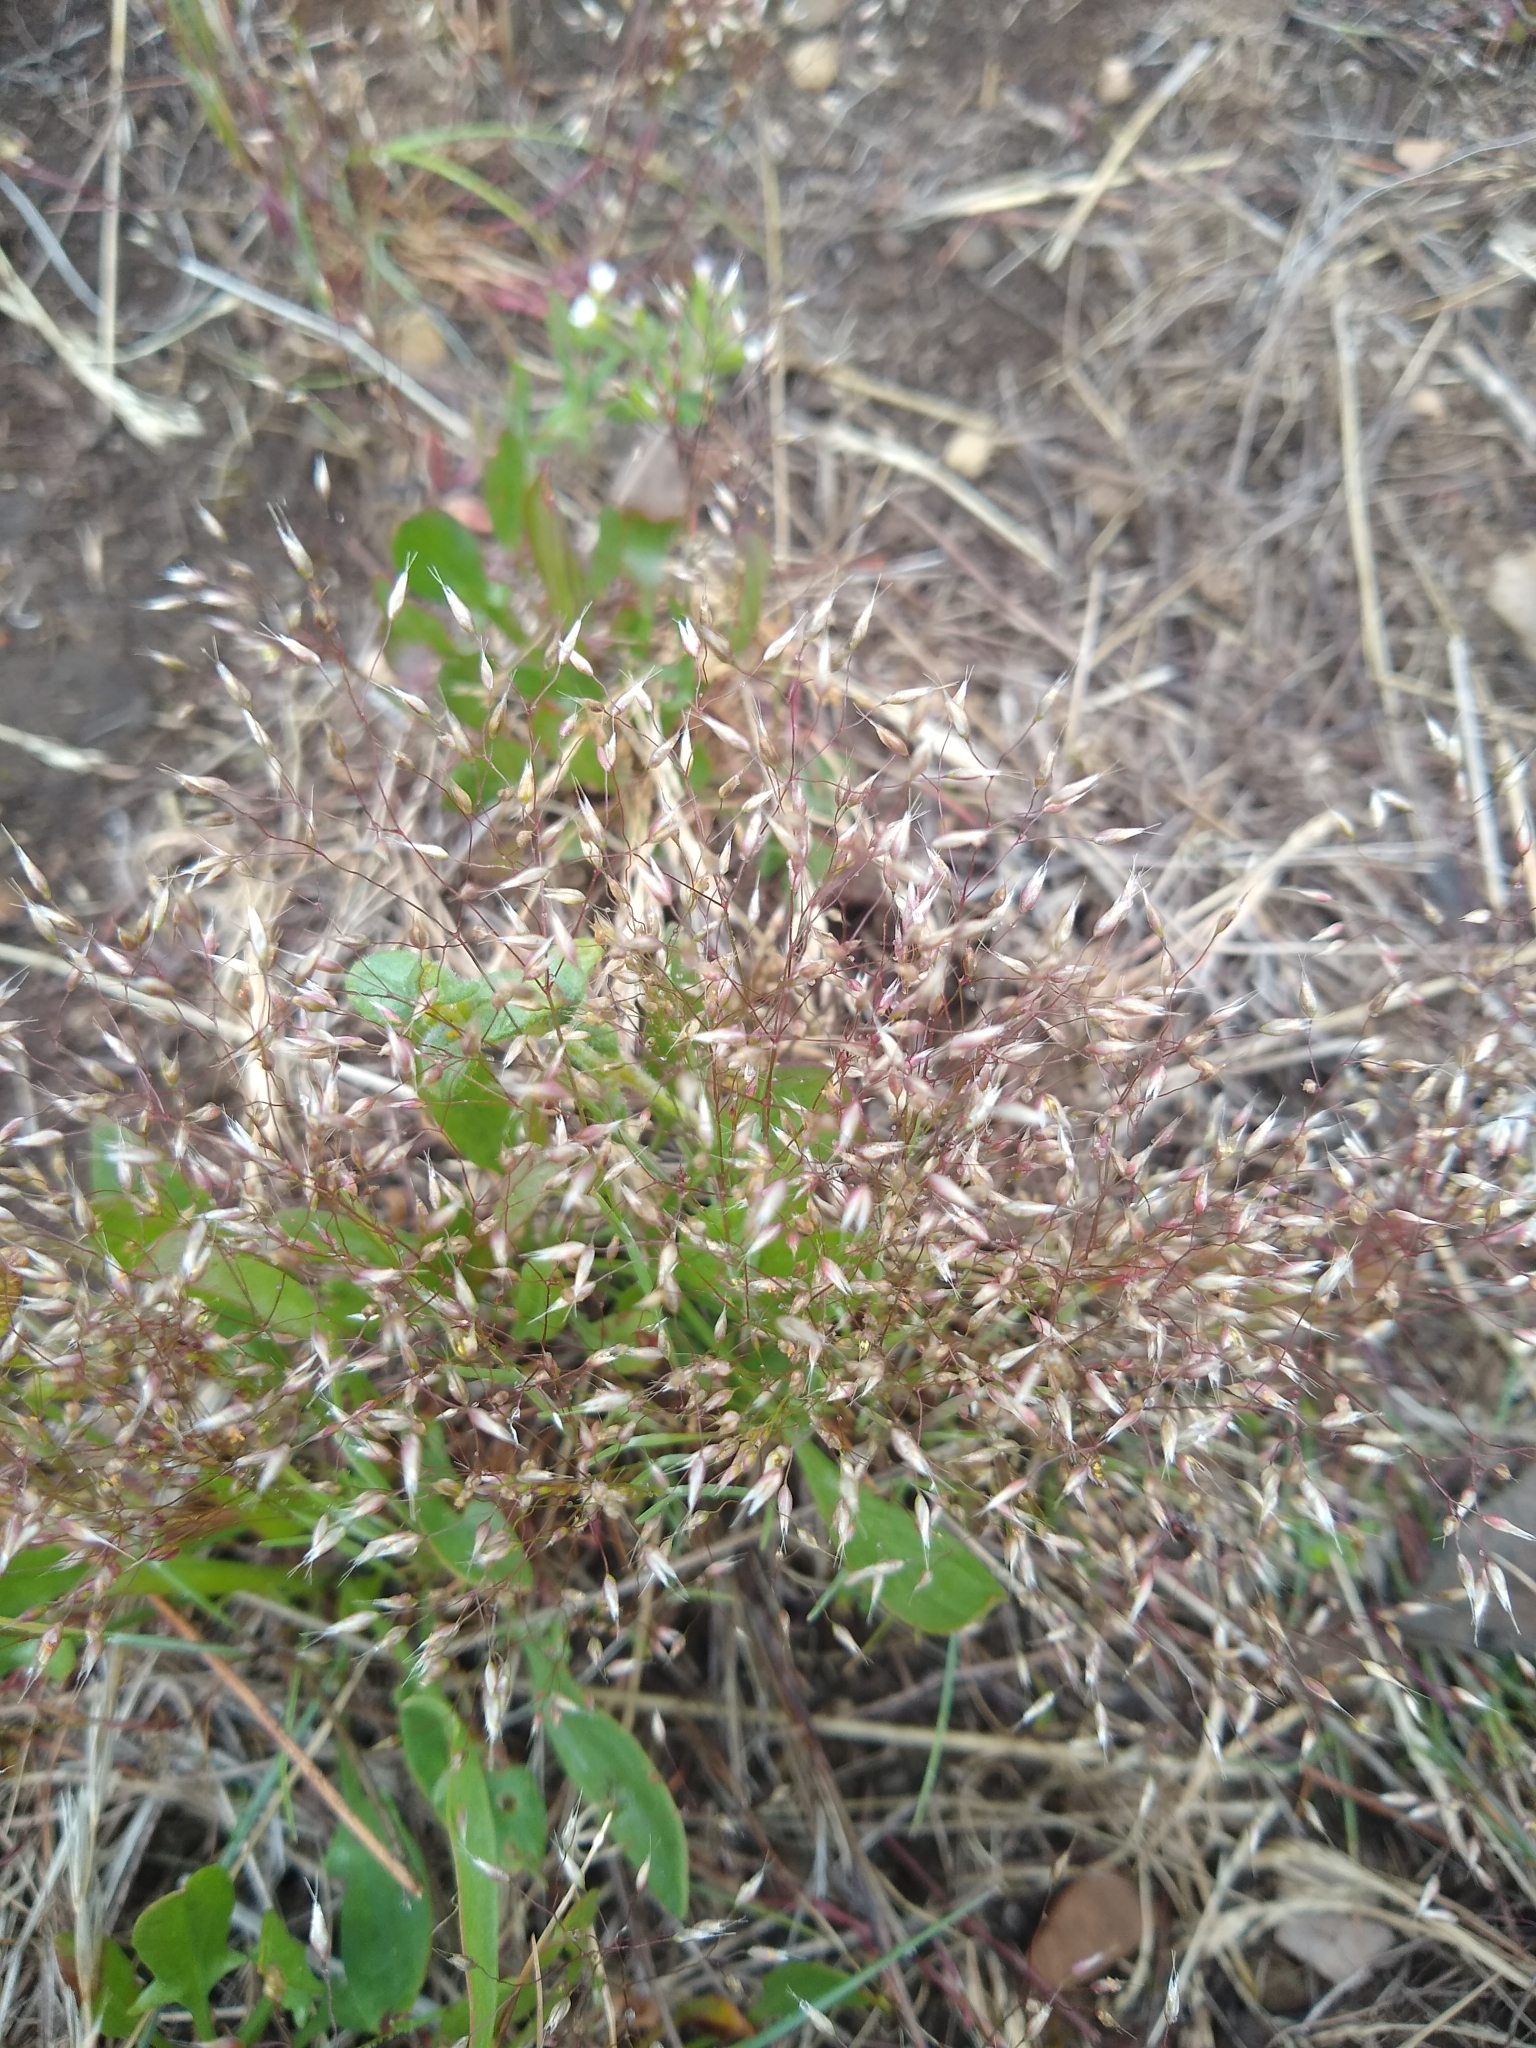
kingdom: Plantae
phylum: Tracheophyta
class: Liliopsida
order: Poales
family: Poaceae
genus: Aira
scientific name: Aira caryophyllea
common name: Silver hairgrass
